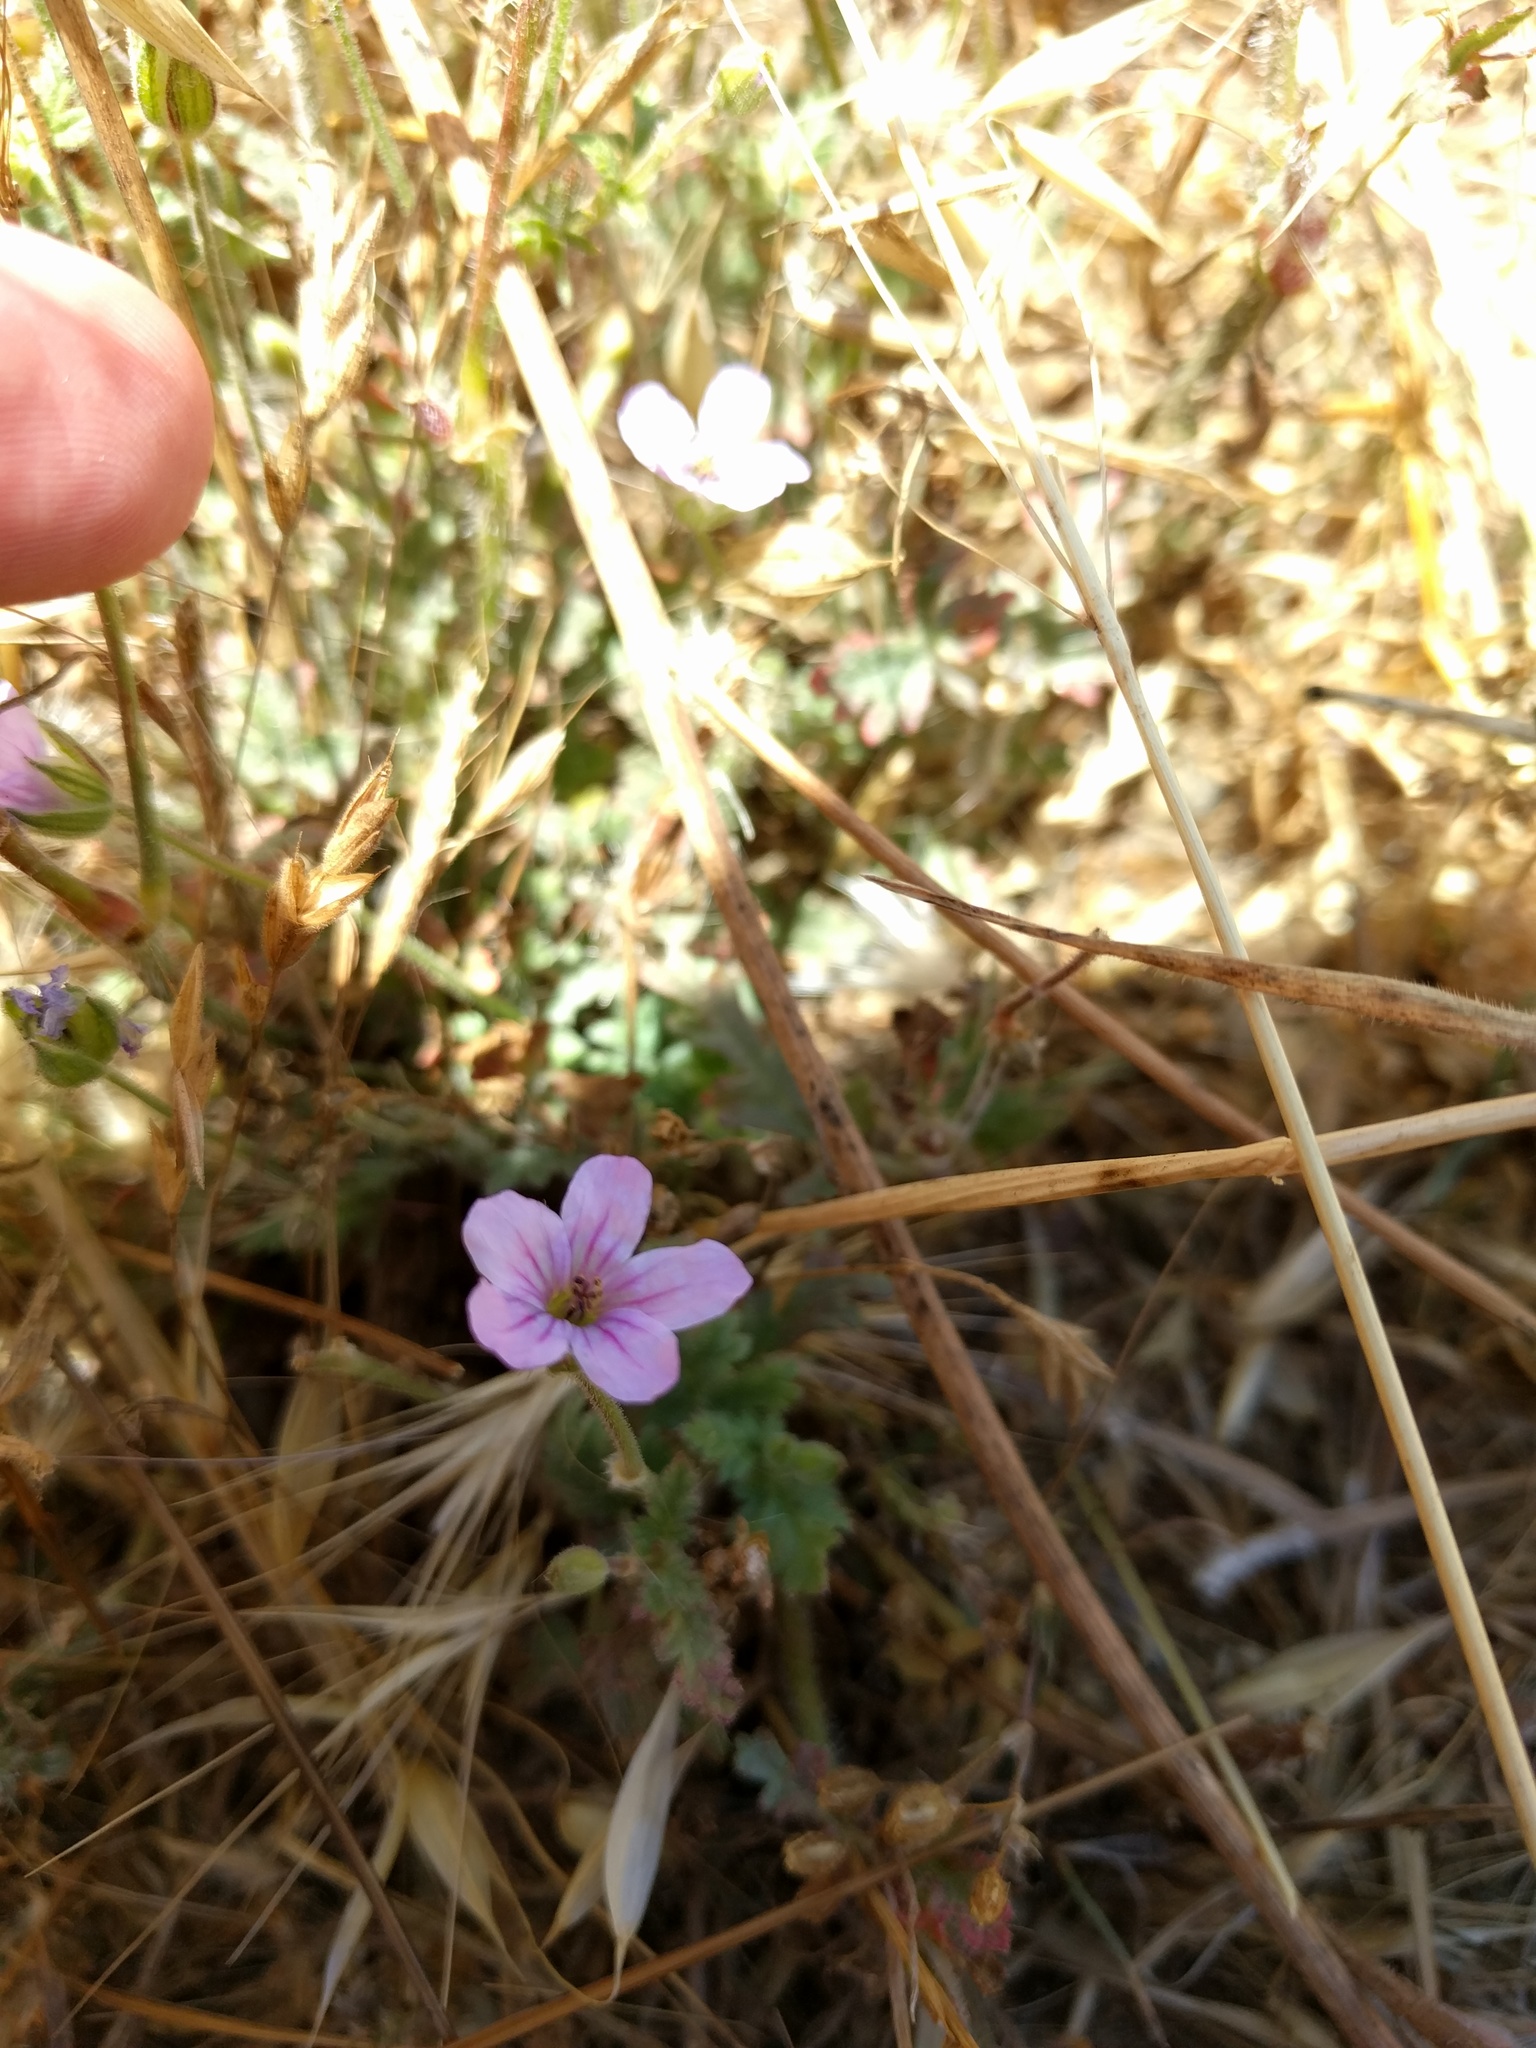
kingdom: Plantae
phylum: Tracheophyta
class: Magnoliopsida
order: Geraniales
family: Geraniaceae
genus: Erodium
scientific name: Erodium botrys
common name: Mediterranean stork's-bill
